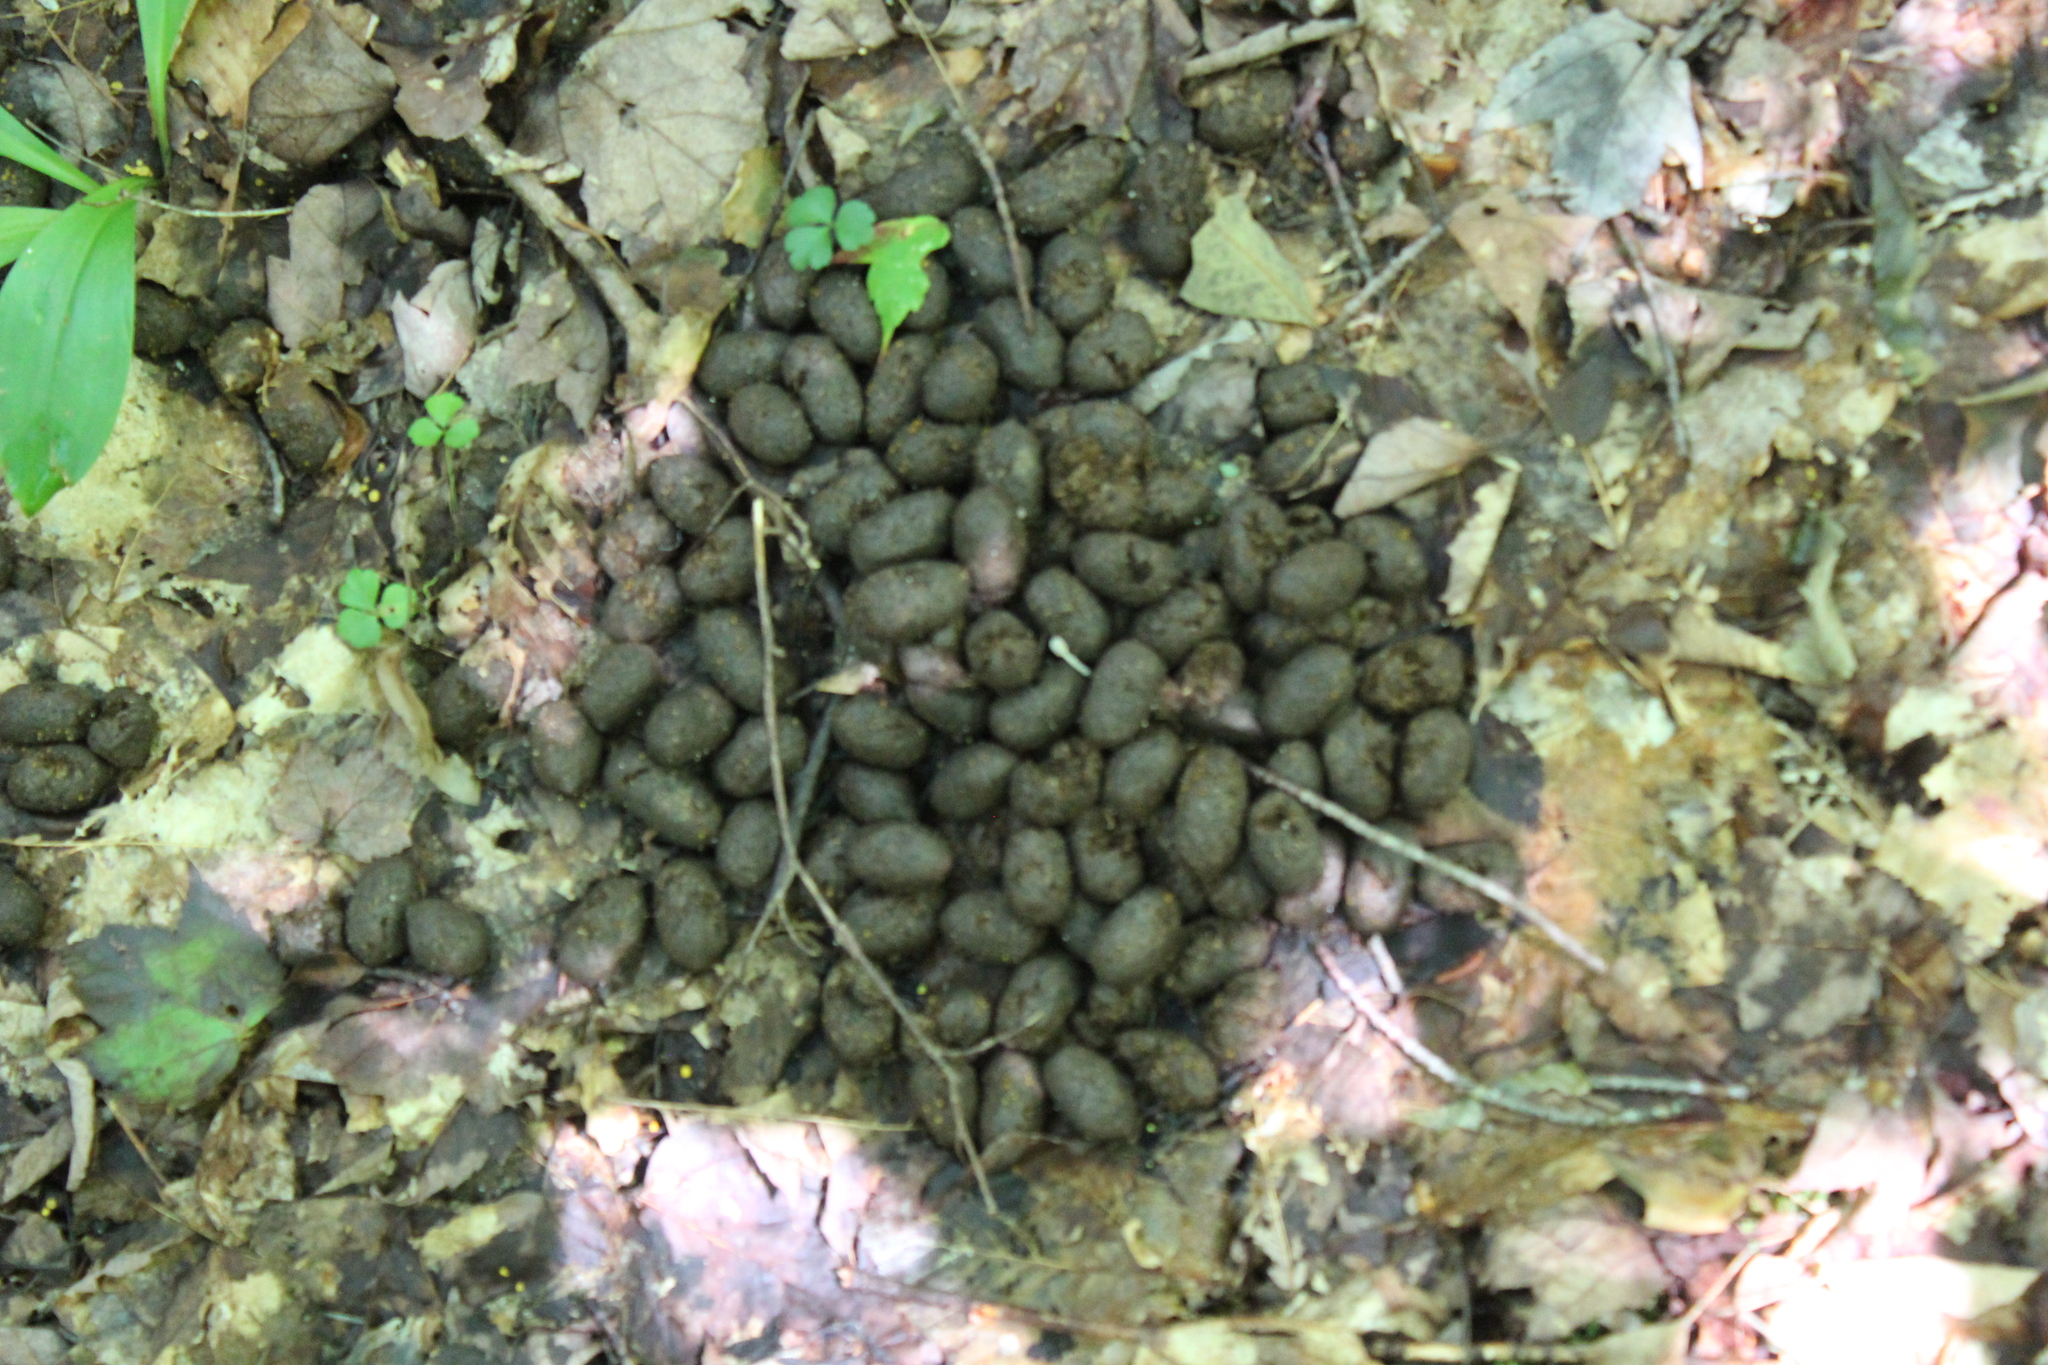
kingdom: Animalia
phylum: Chordata
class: Mammalia
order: Artiodactyla
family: Cervidae
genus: Alces
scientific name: Alces alces
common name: Moose
